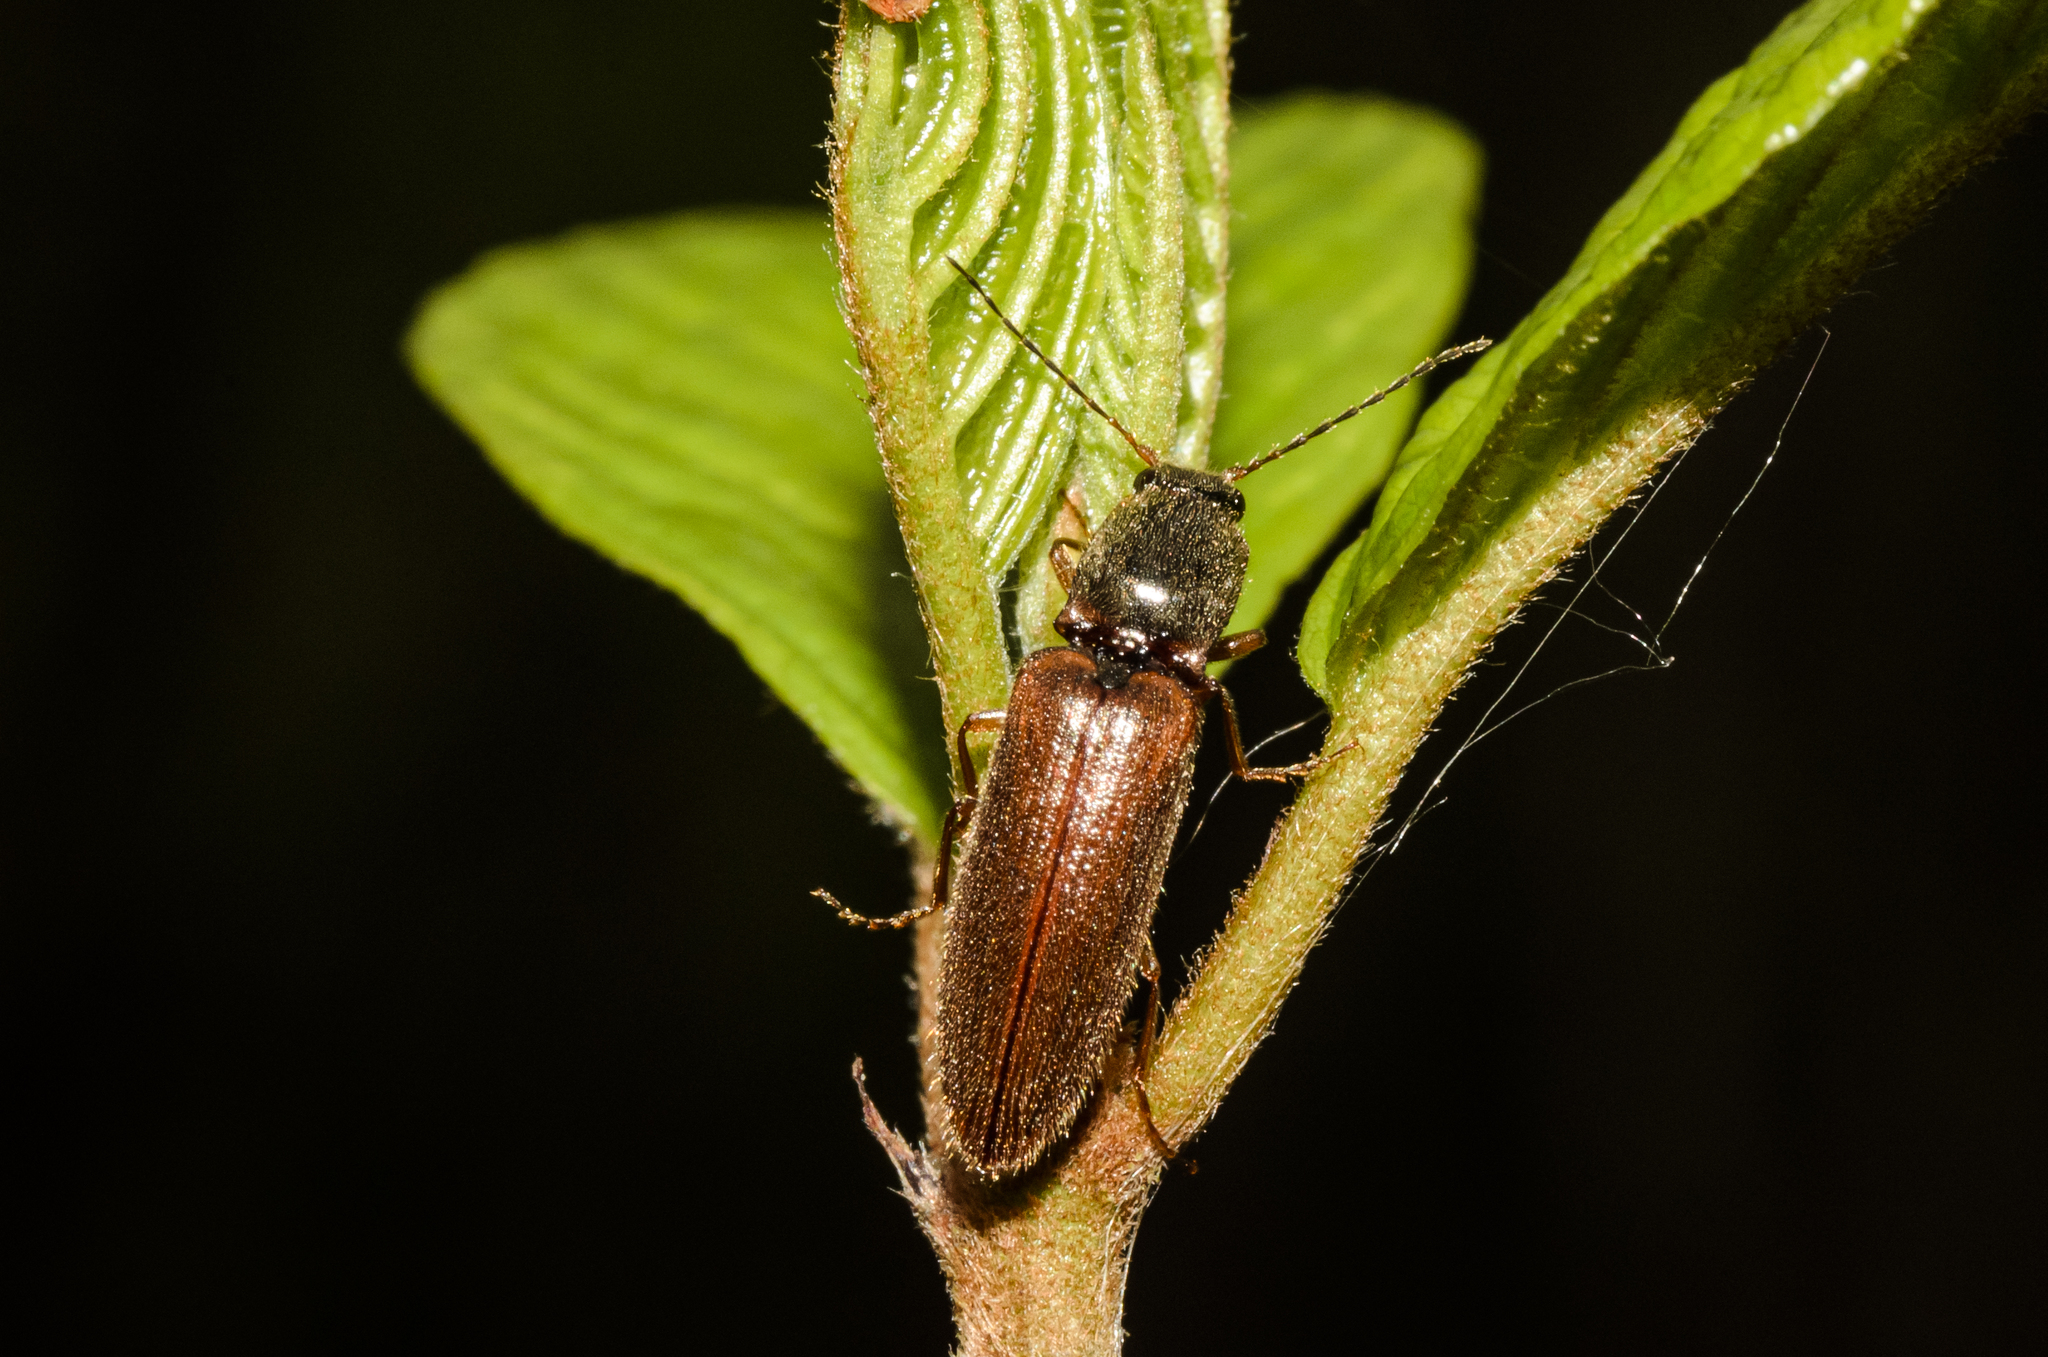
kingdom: Animalia
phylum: Arthropoda
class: Insecta
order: Coleoptera
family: Elateridae
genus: Athous
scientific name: Athous subfuscus
